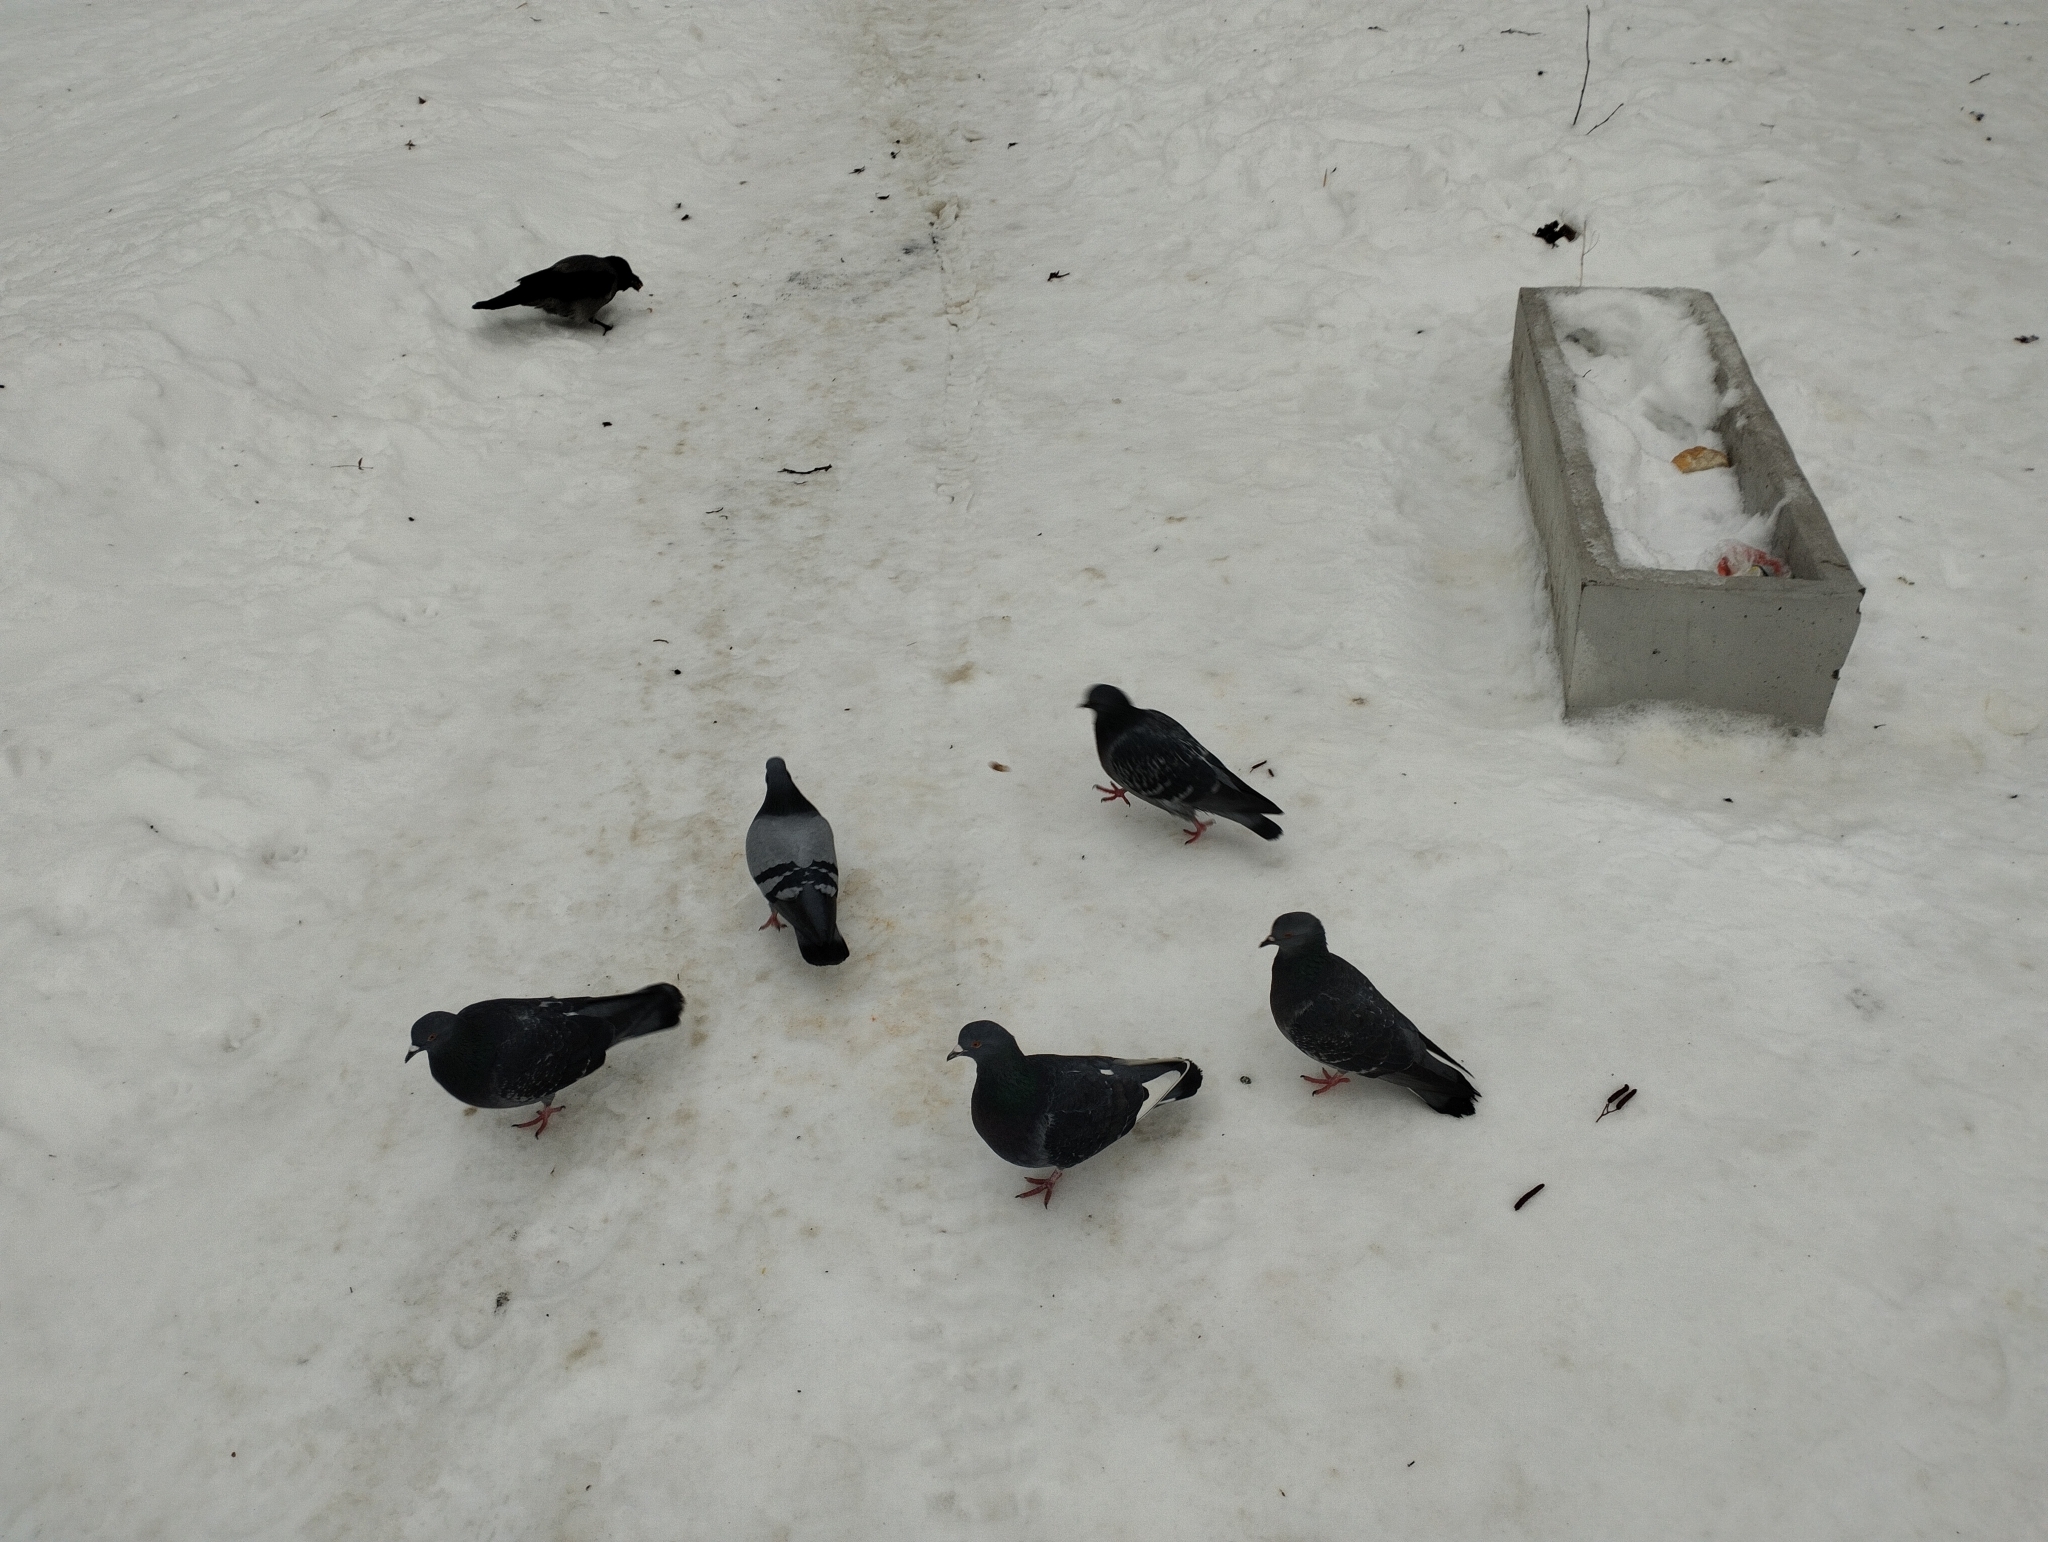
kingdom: Animalia
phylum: Chordata
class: Aves
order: Columbiformes
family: Columbidae
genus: Columba
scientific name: Columba livia
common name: Rock pigeon
